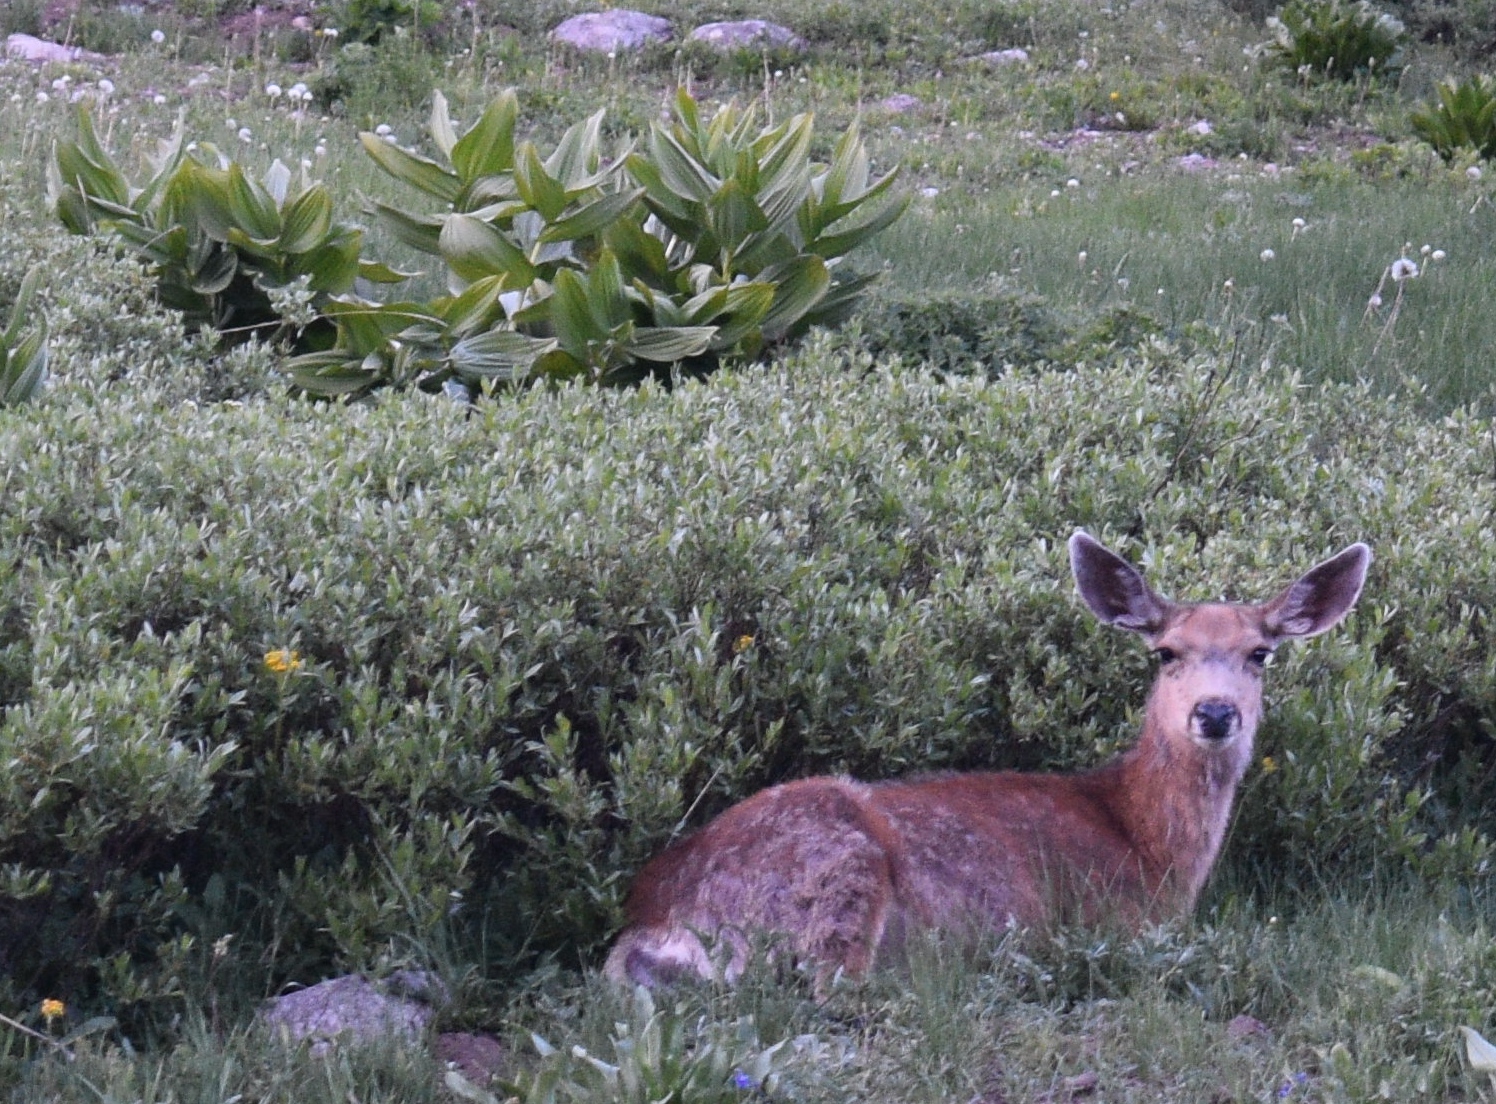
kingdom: Animalia
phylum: Chordata
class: Mammalia
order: Artiodactyla
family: Cervidae
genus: Odocoileus
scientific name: Odocoileus hemionus
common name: Mule deer
